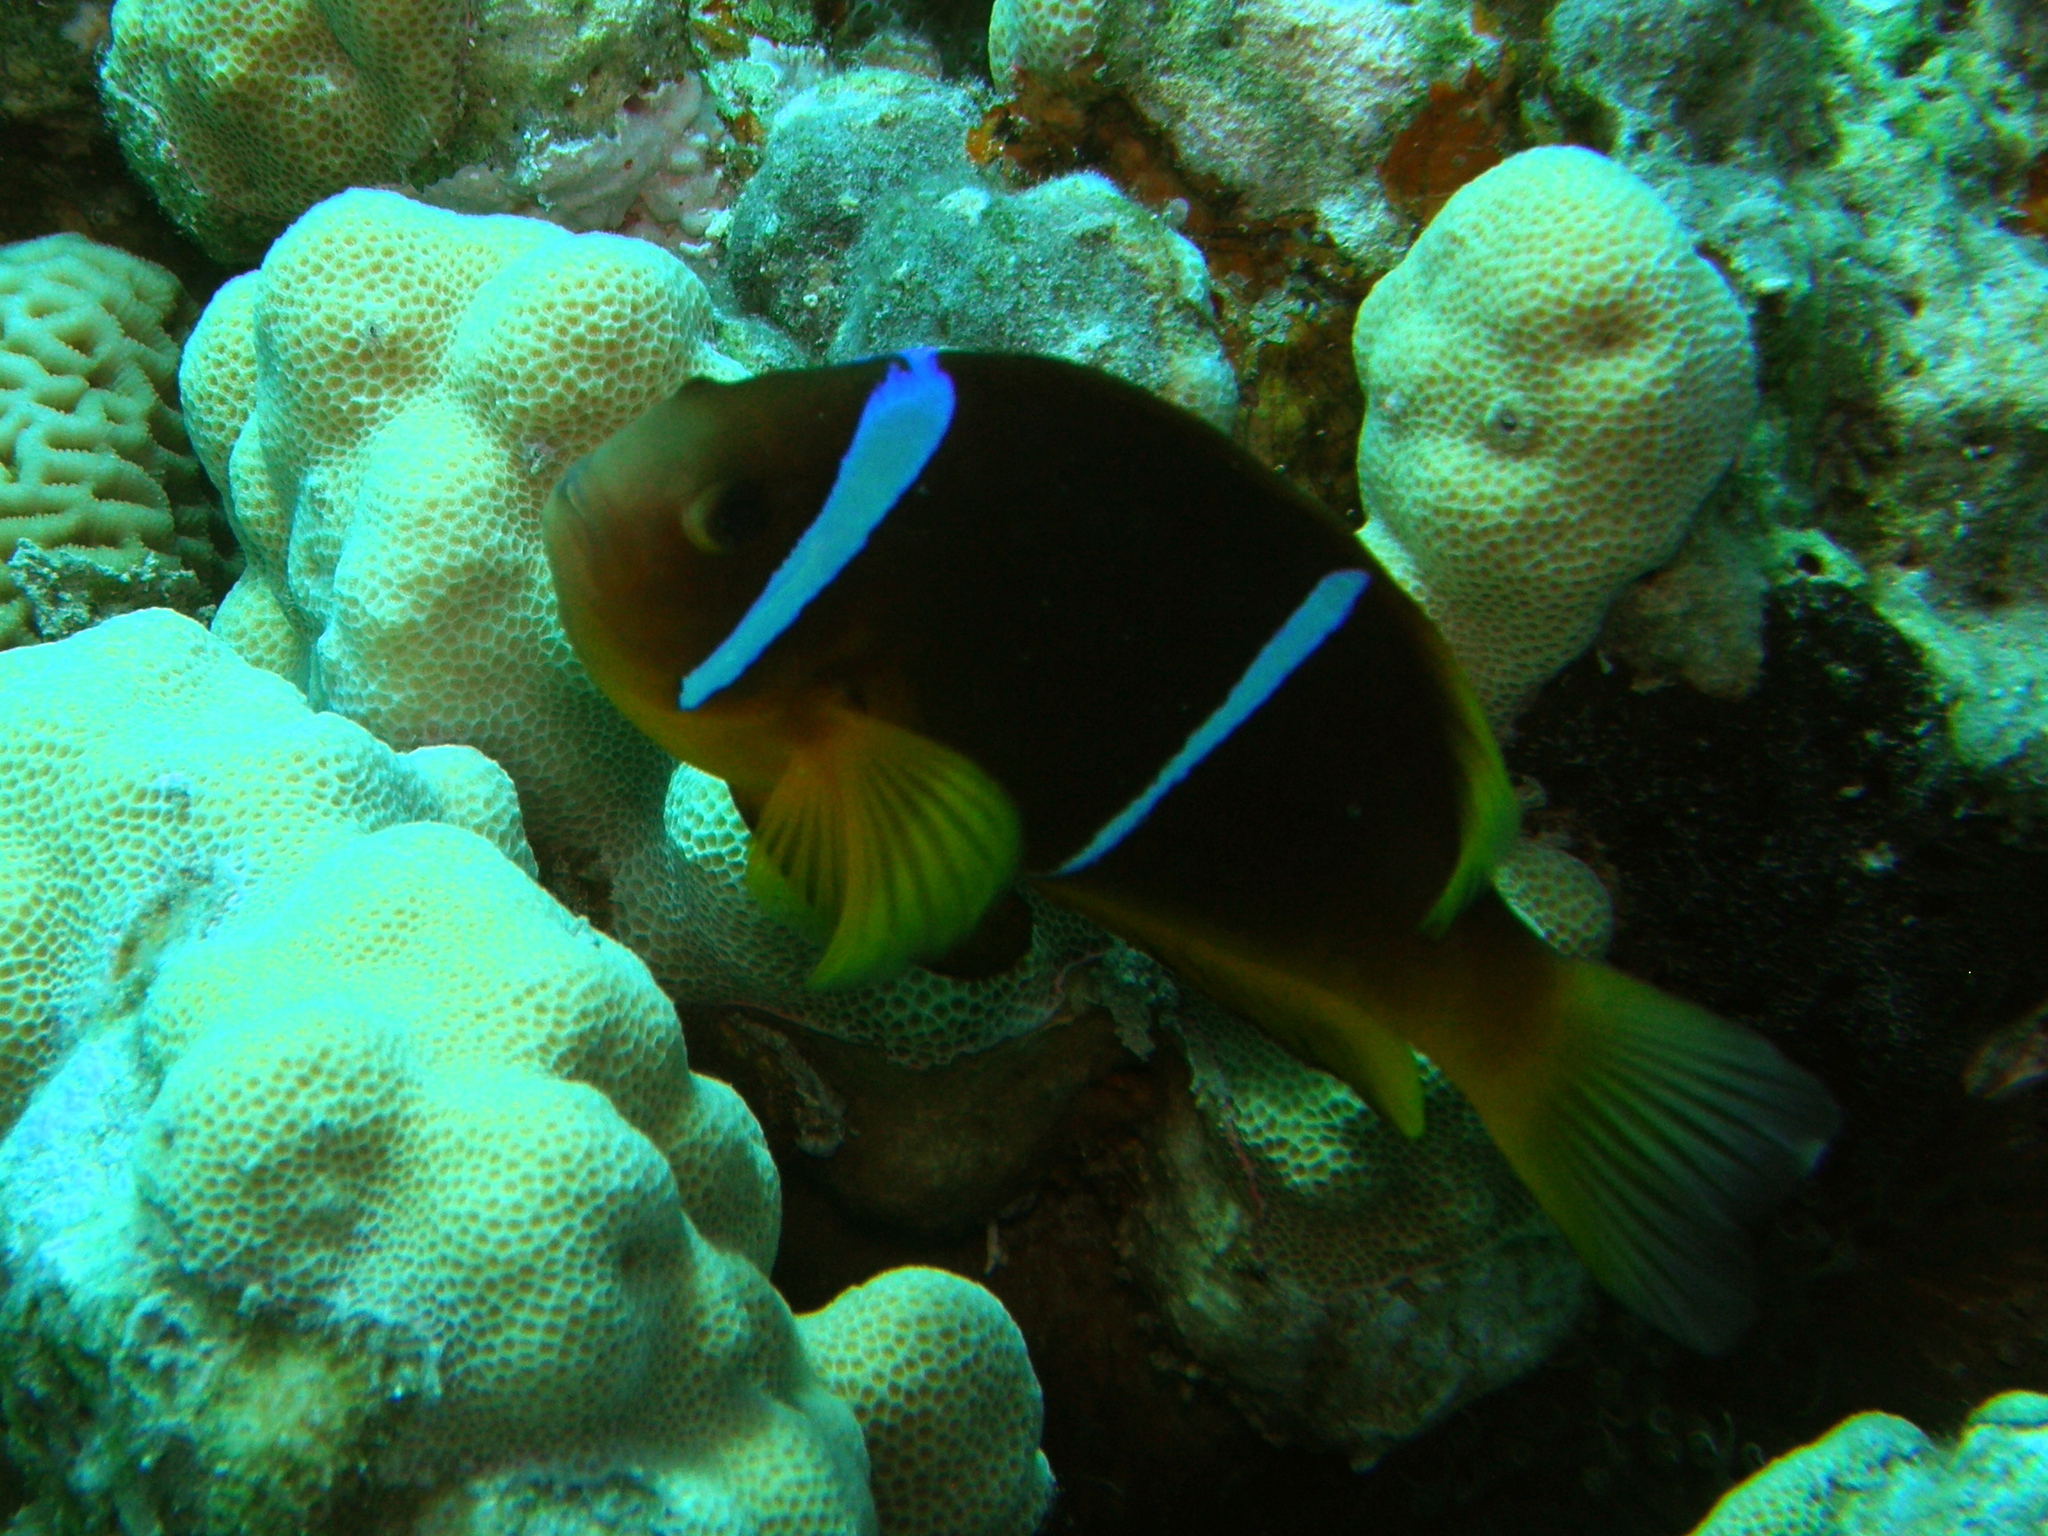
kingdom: Animalia
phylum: Chordata
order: Perciformes
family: Pomacentridae
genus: Amphiprion
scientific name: Amphiprion bicinctus
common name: Two-banded anemonefish
